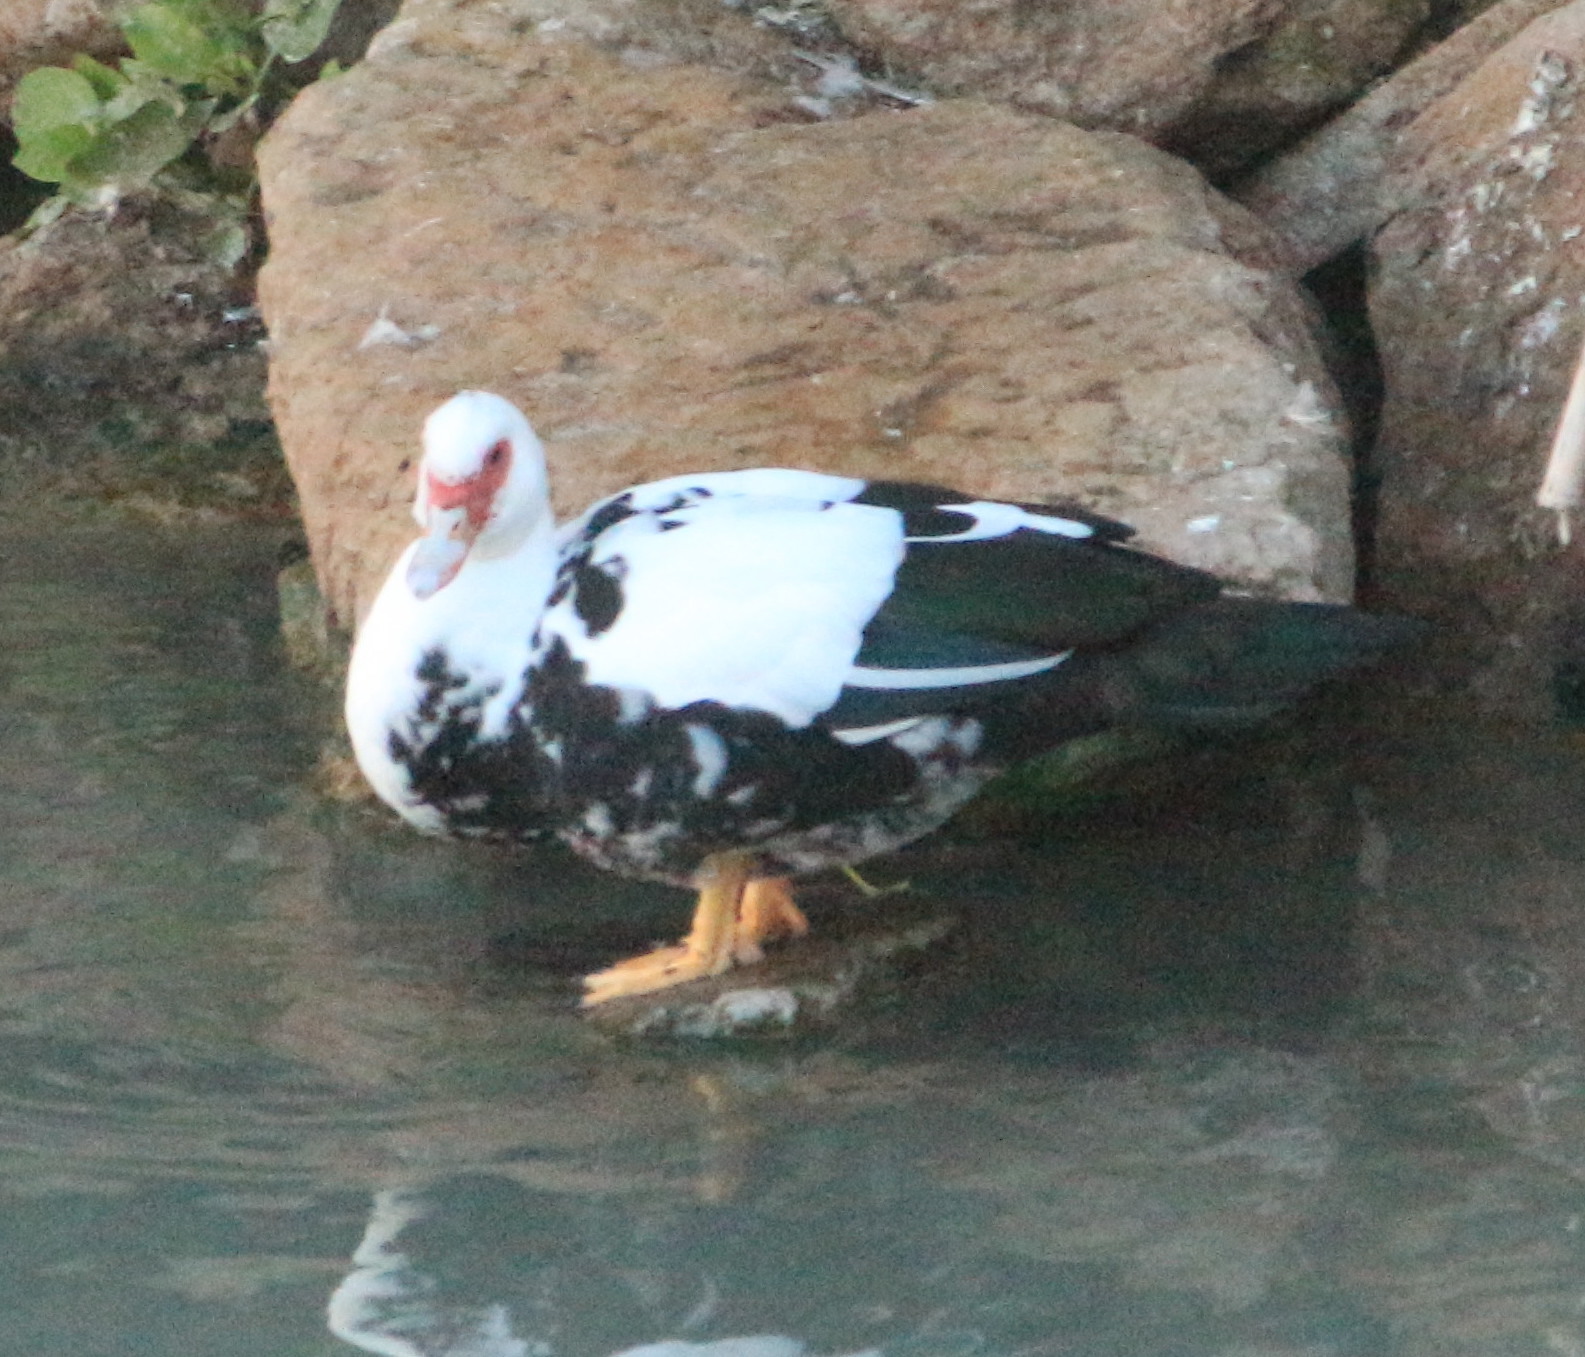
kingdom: Animalia
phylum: Chordata
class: Aves
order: Anseriformes
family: Anatidae
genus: Cairina
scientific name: Cairina moschata
